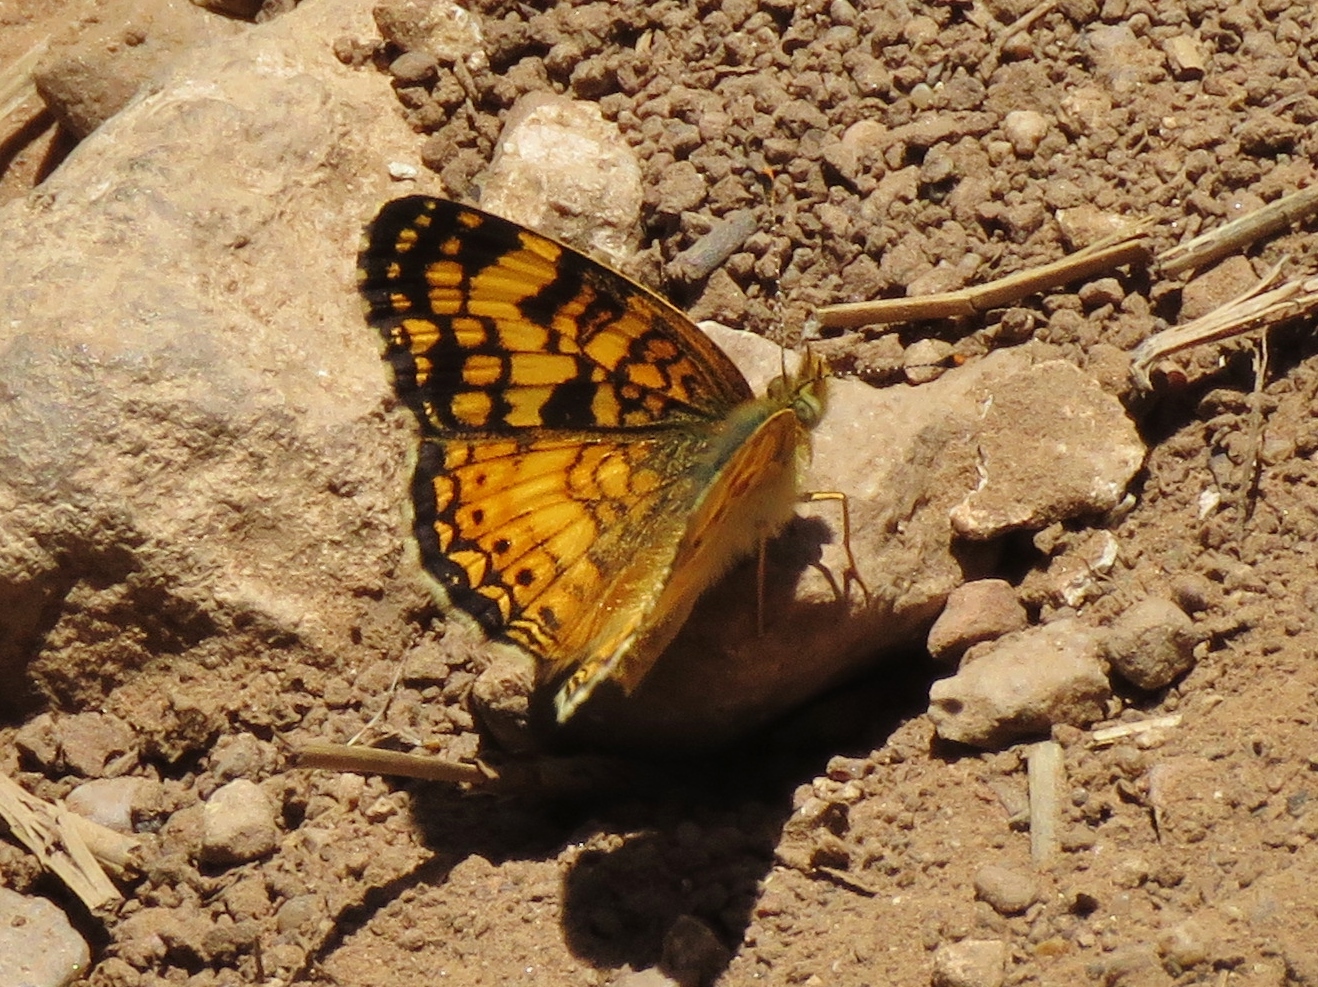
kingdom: Animalia
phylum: Arthropoda
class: Insecta
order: Lepidoptera
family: Nymphalidae
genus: Eresia
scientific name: Eresia aveyrona
